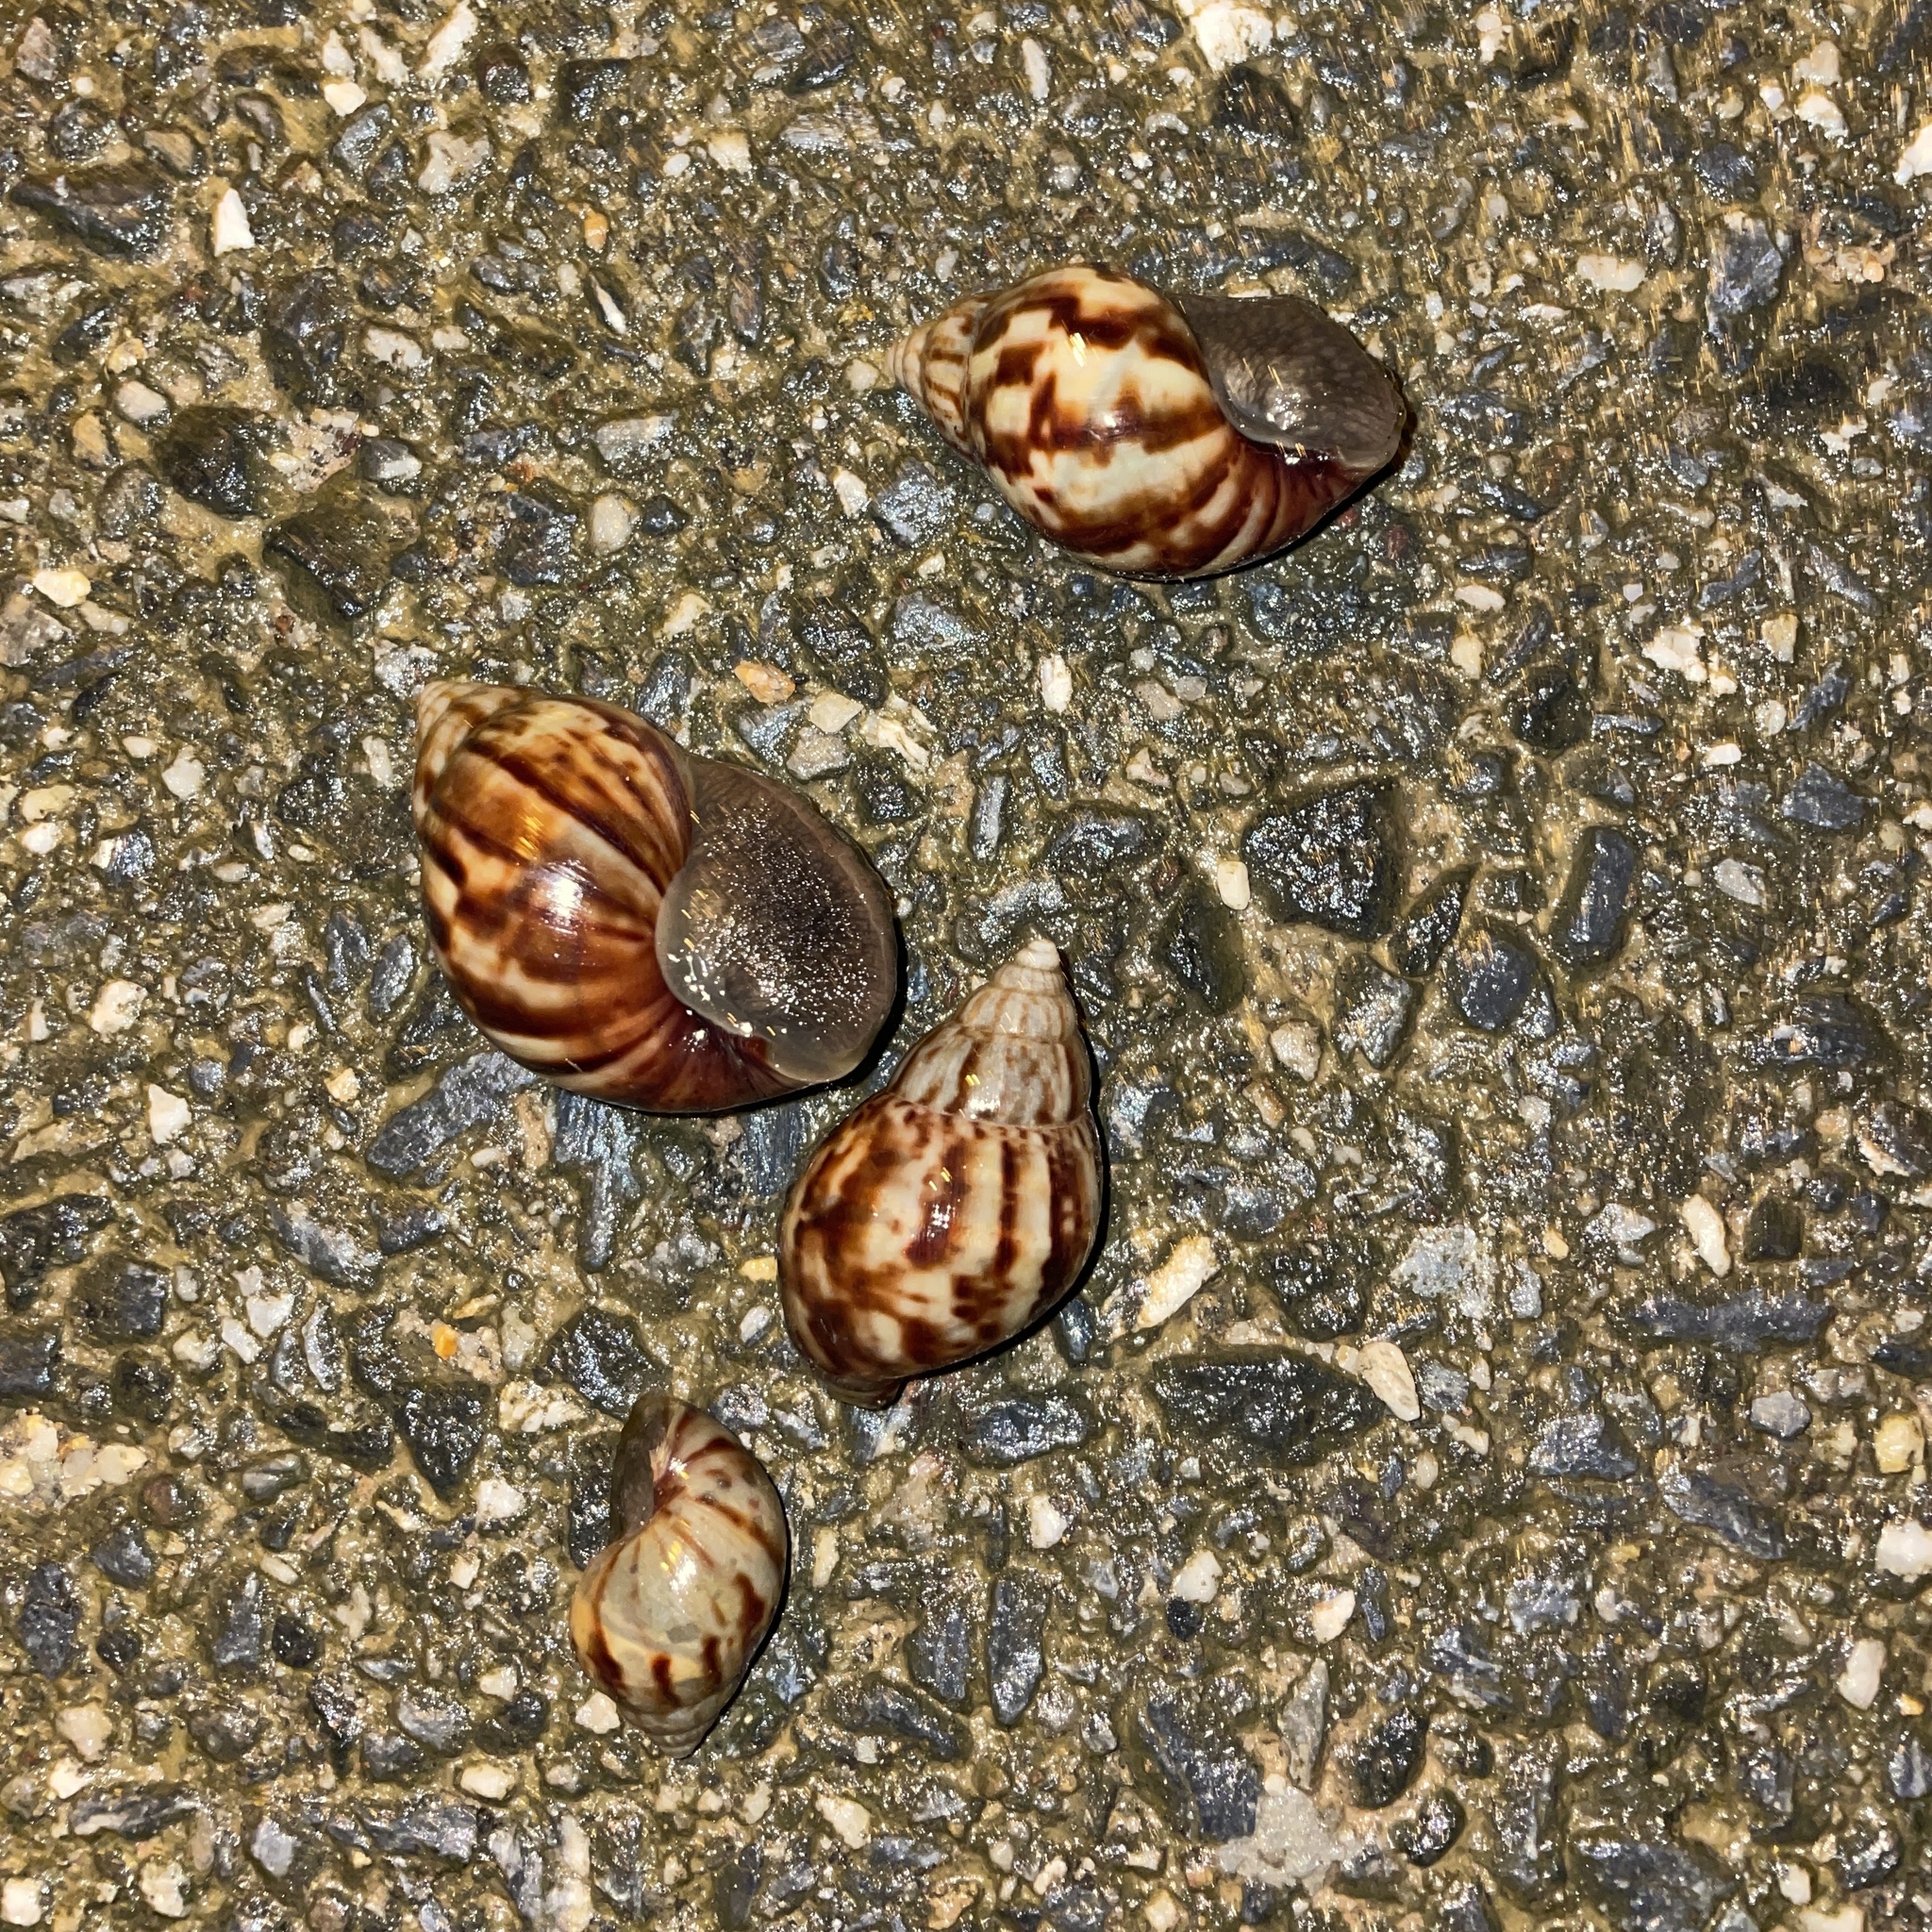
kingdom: Animalia
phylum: Mollusca
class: Gastropoda
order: Stylommatophora
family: Achatinidae
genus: Lissachatina
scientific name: Lissachatina fulica
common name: Giant african snail
